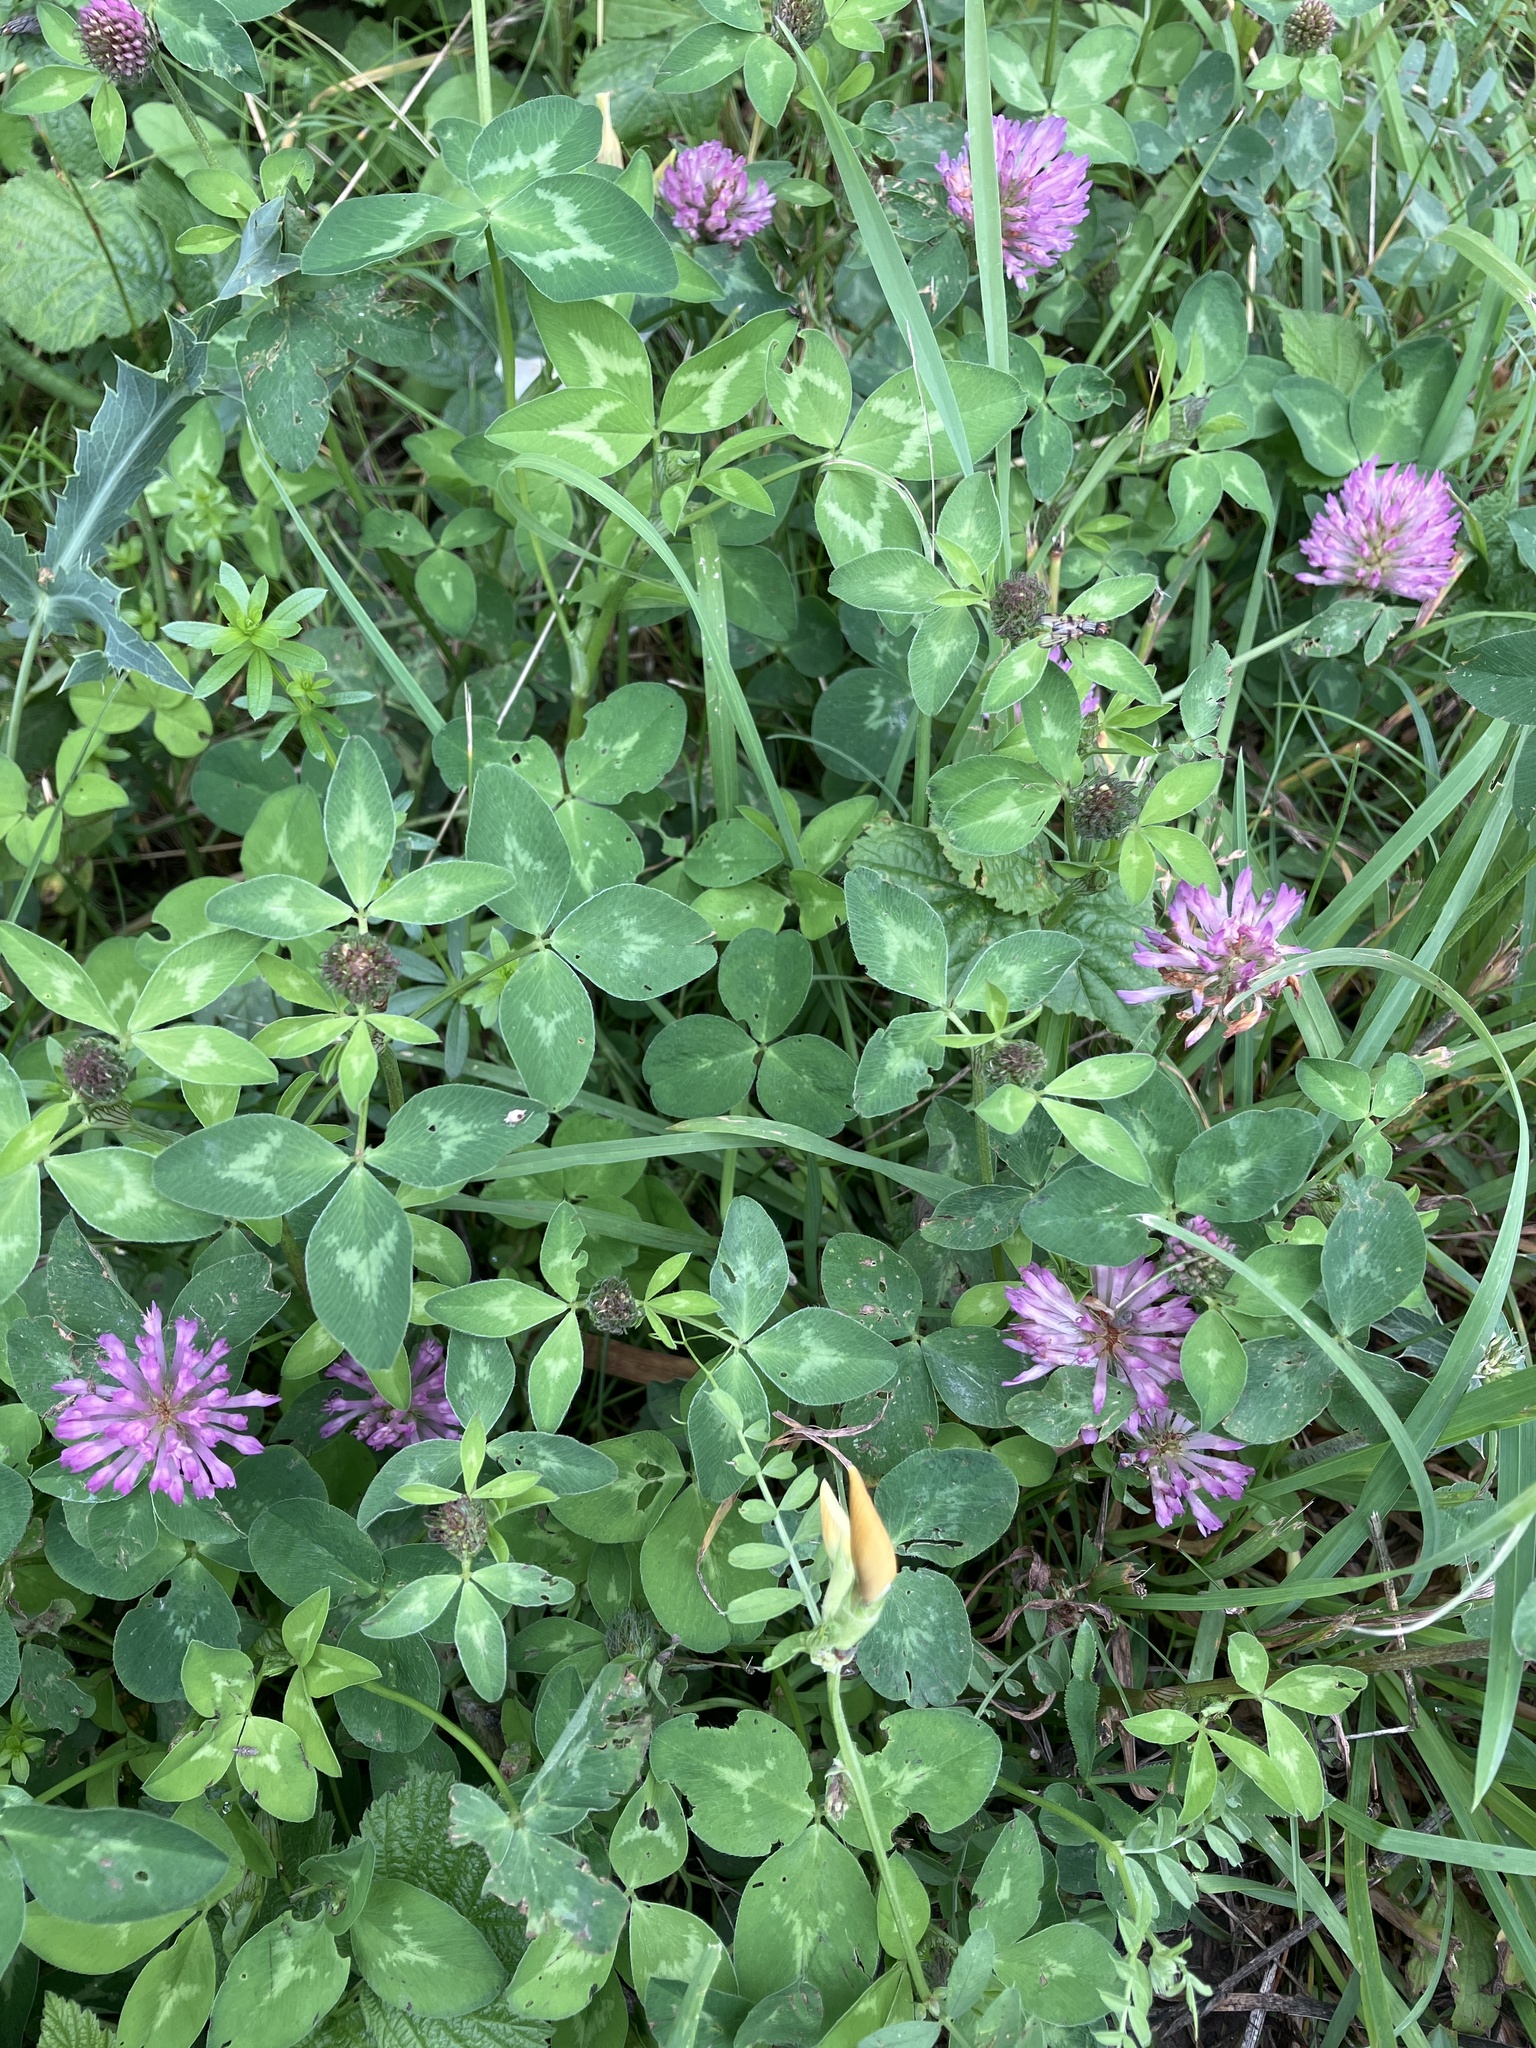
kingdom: Plantae
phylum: Tracheophyta
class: Magnoliopsida
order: Fabales
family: Fabaceae
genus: Trifolium
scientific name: Trifolium pratense
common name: Red clover
